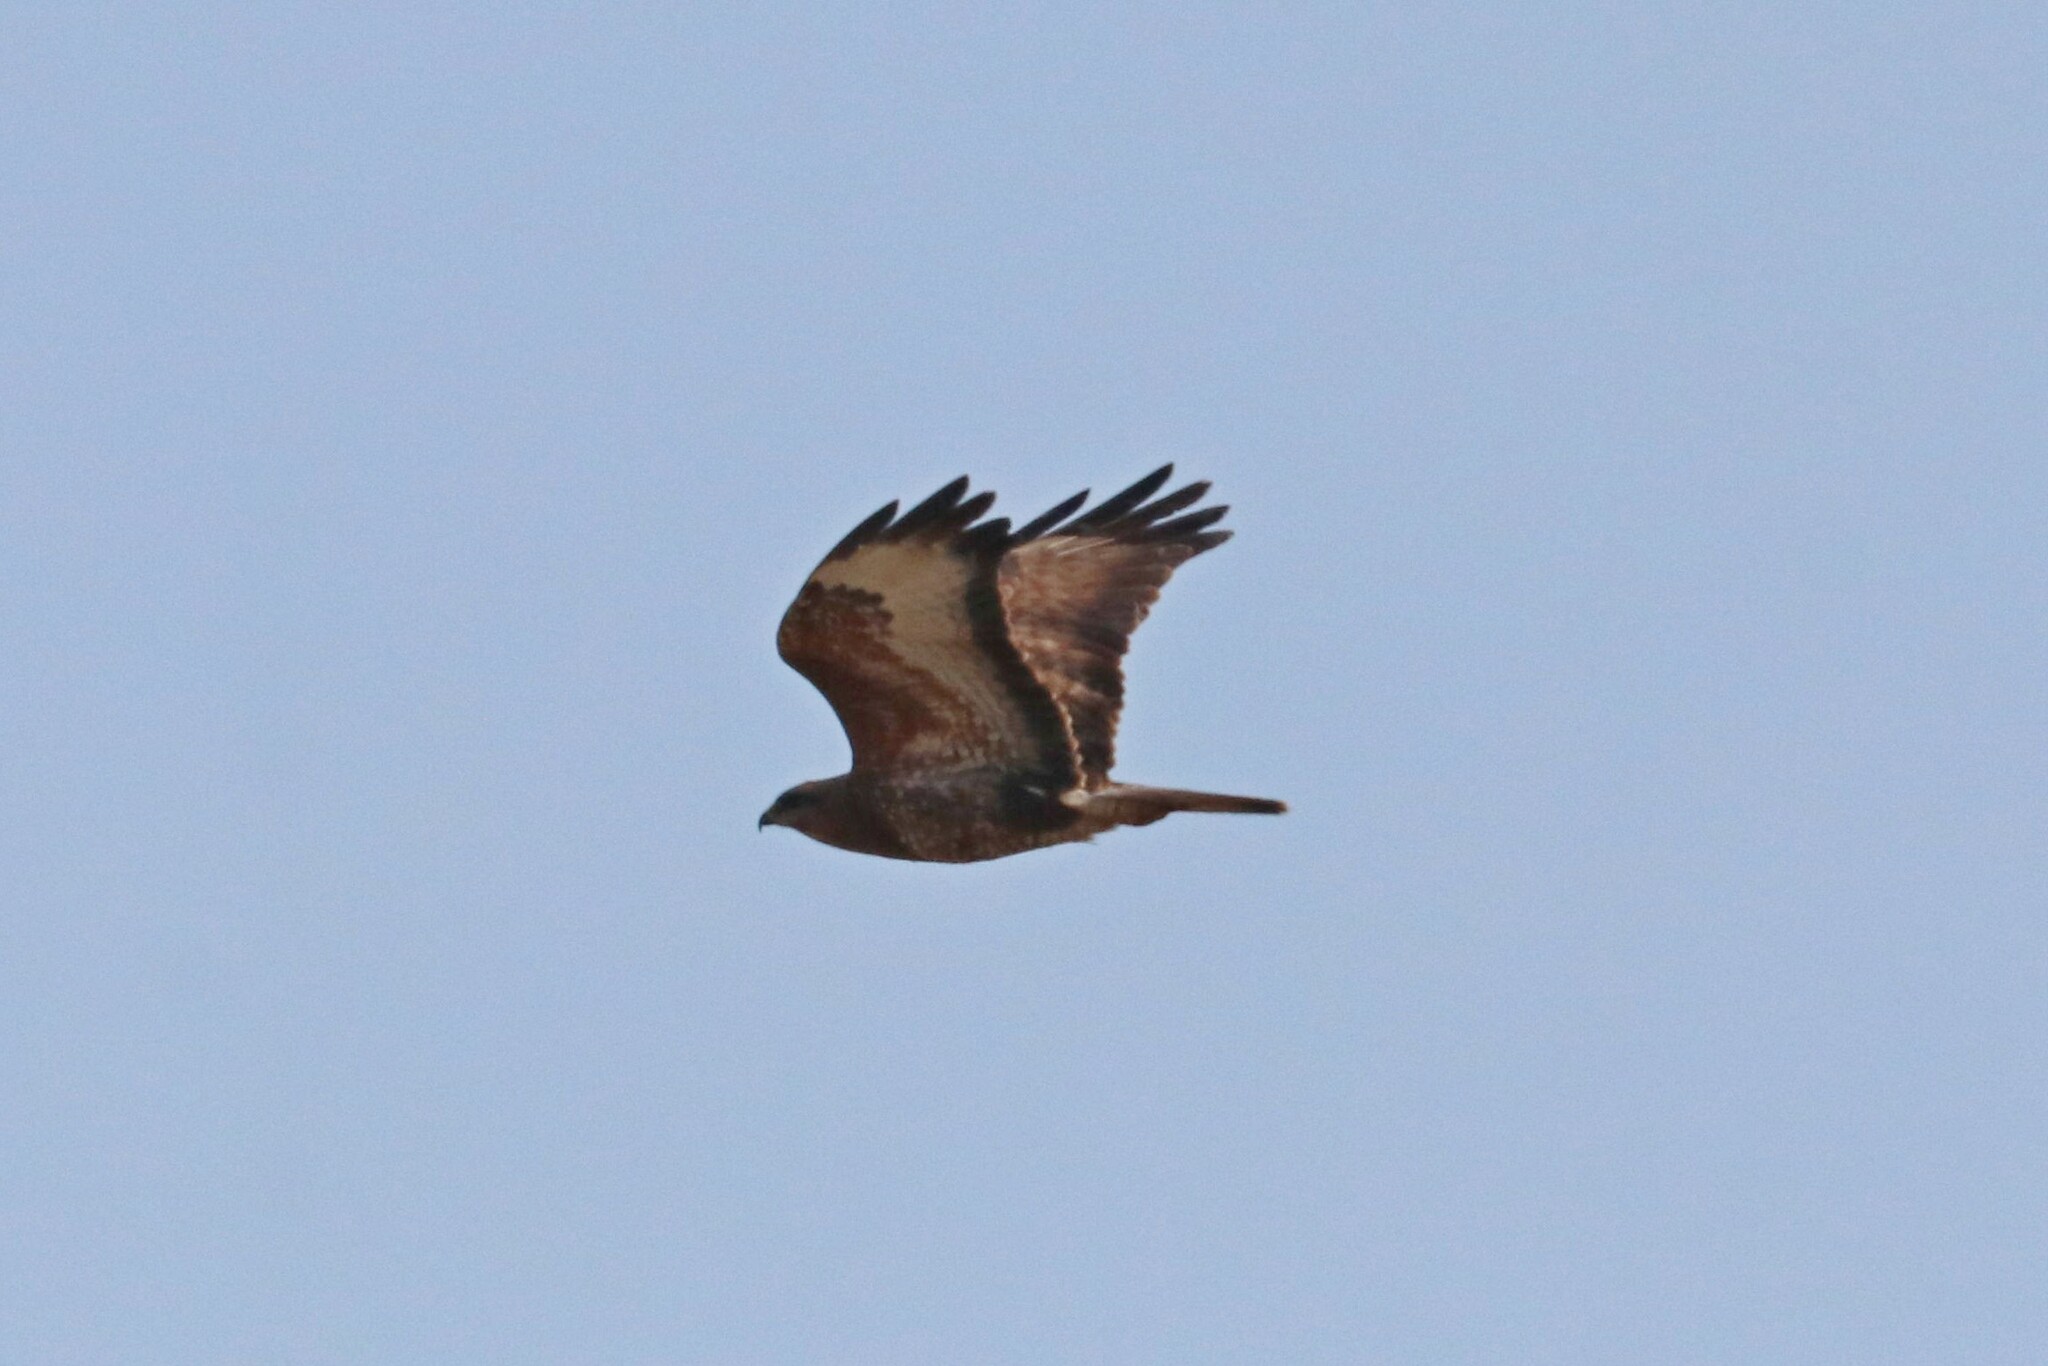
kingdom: Animalia
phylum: Chordata
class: Aves
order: Accipitriformes
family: Accipitridae
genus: Buteo
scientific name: Buteo buteo
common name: Common buzzard
